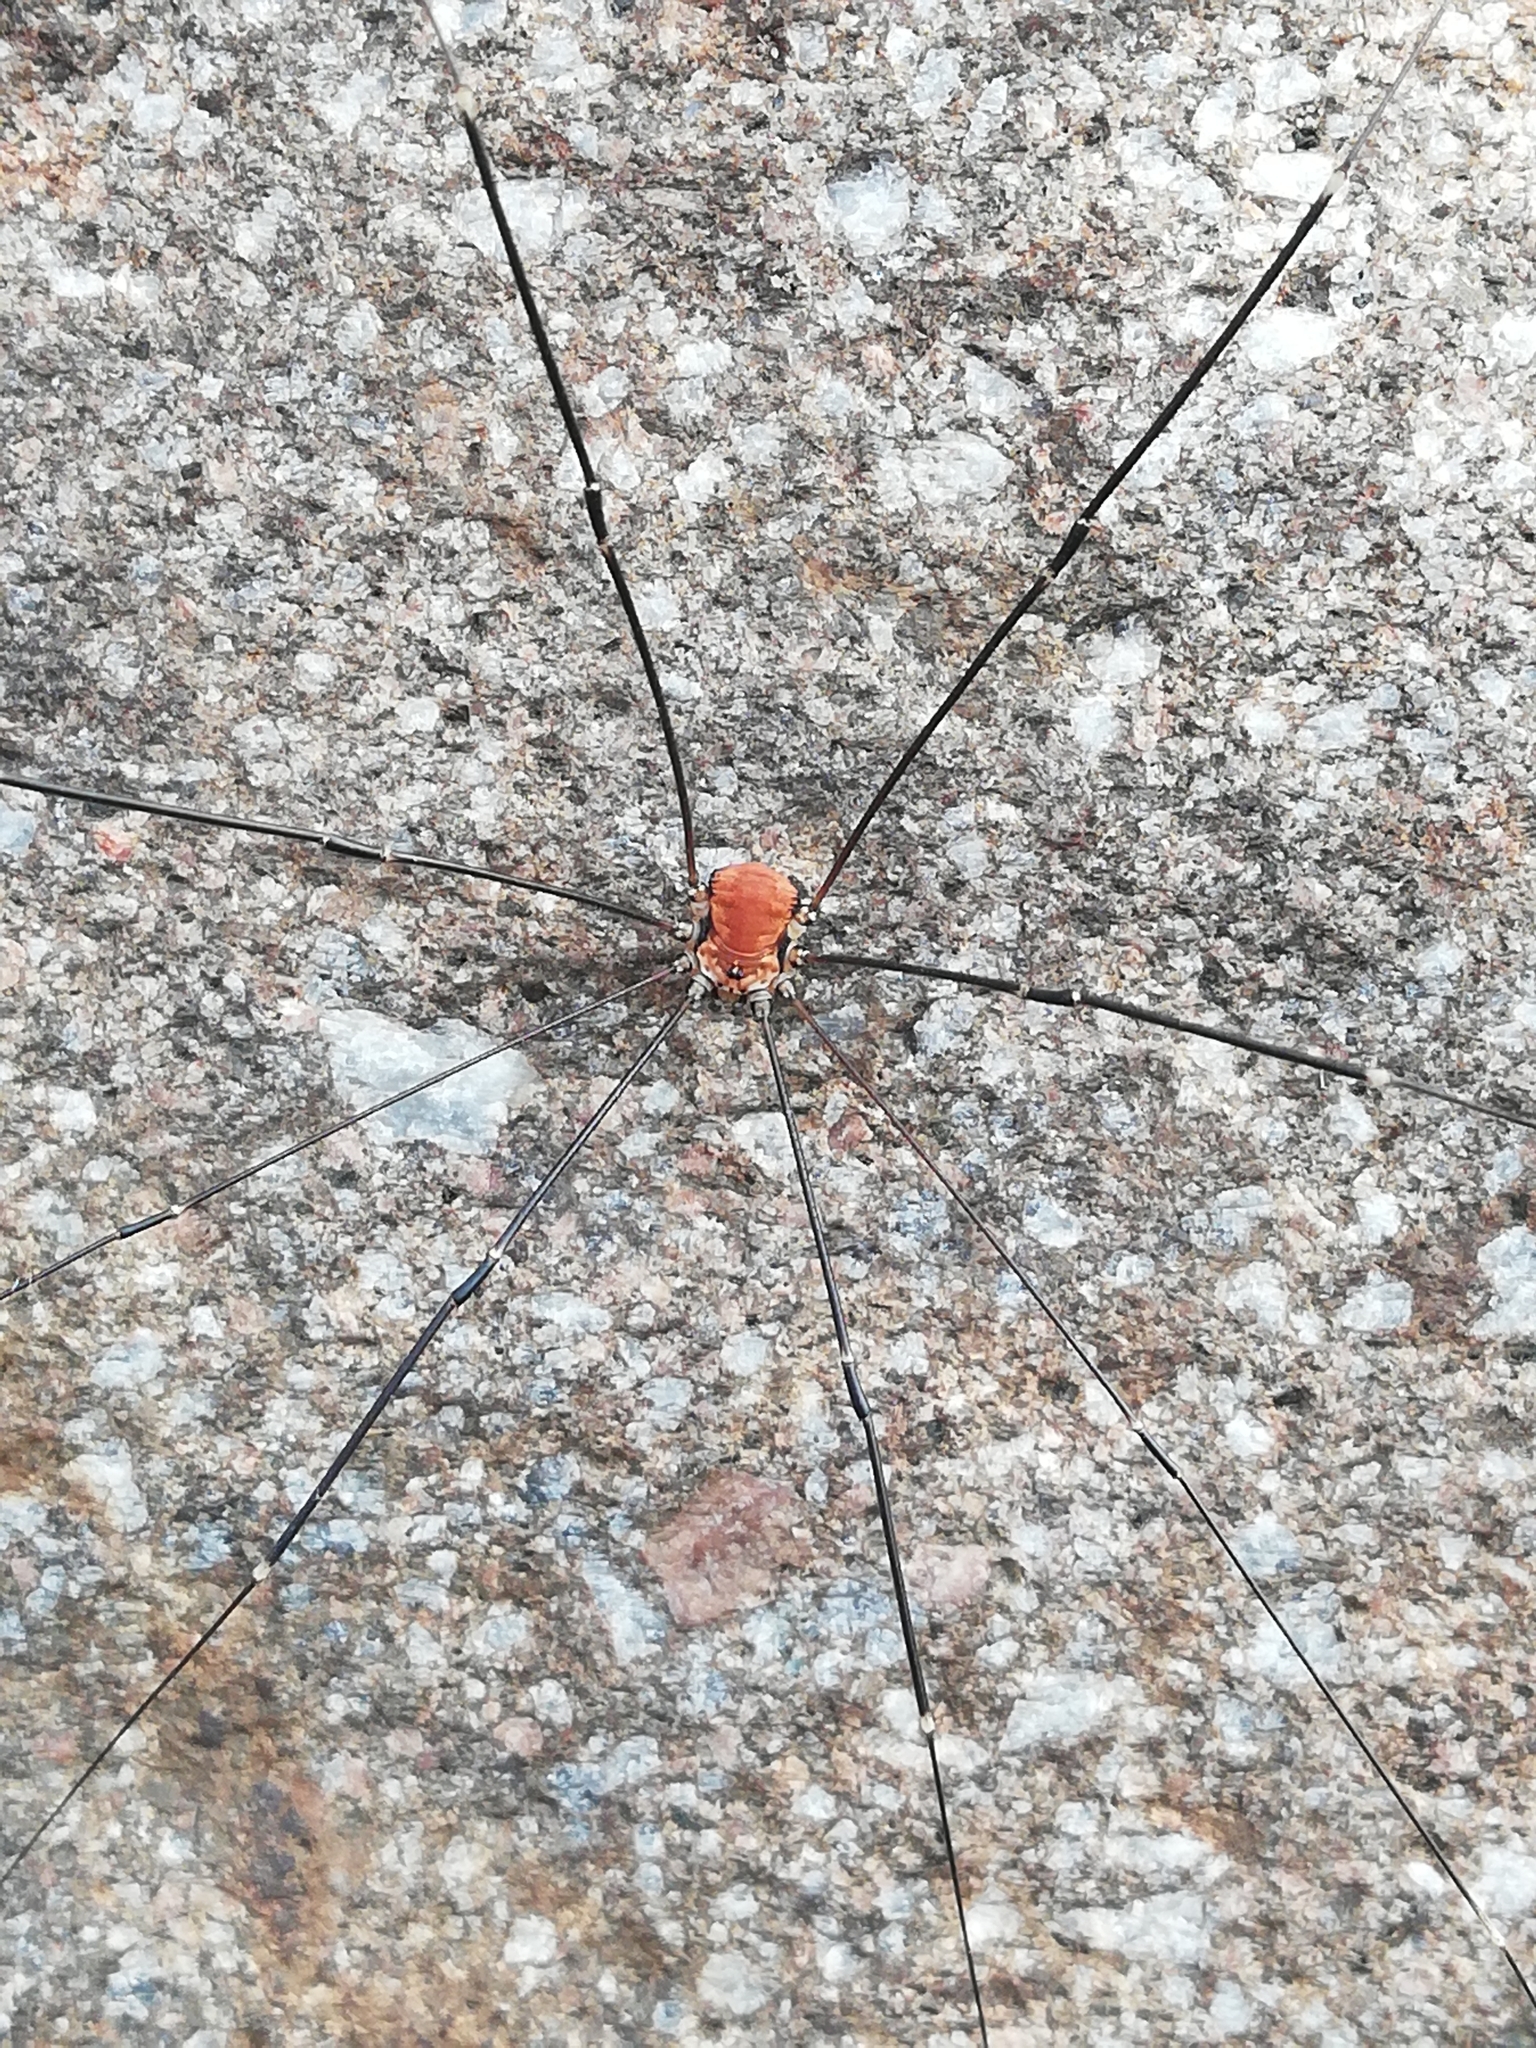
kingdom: Animalia
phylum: Arthropoda
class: Arachnida
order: Opiliones
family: Sclerosomatidae
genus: Leiobunum
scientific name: Leiobunum limbatum
